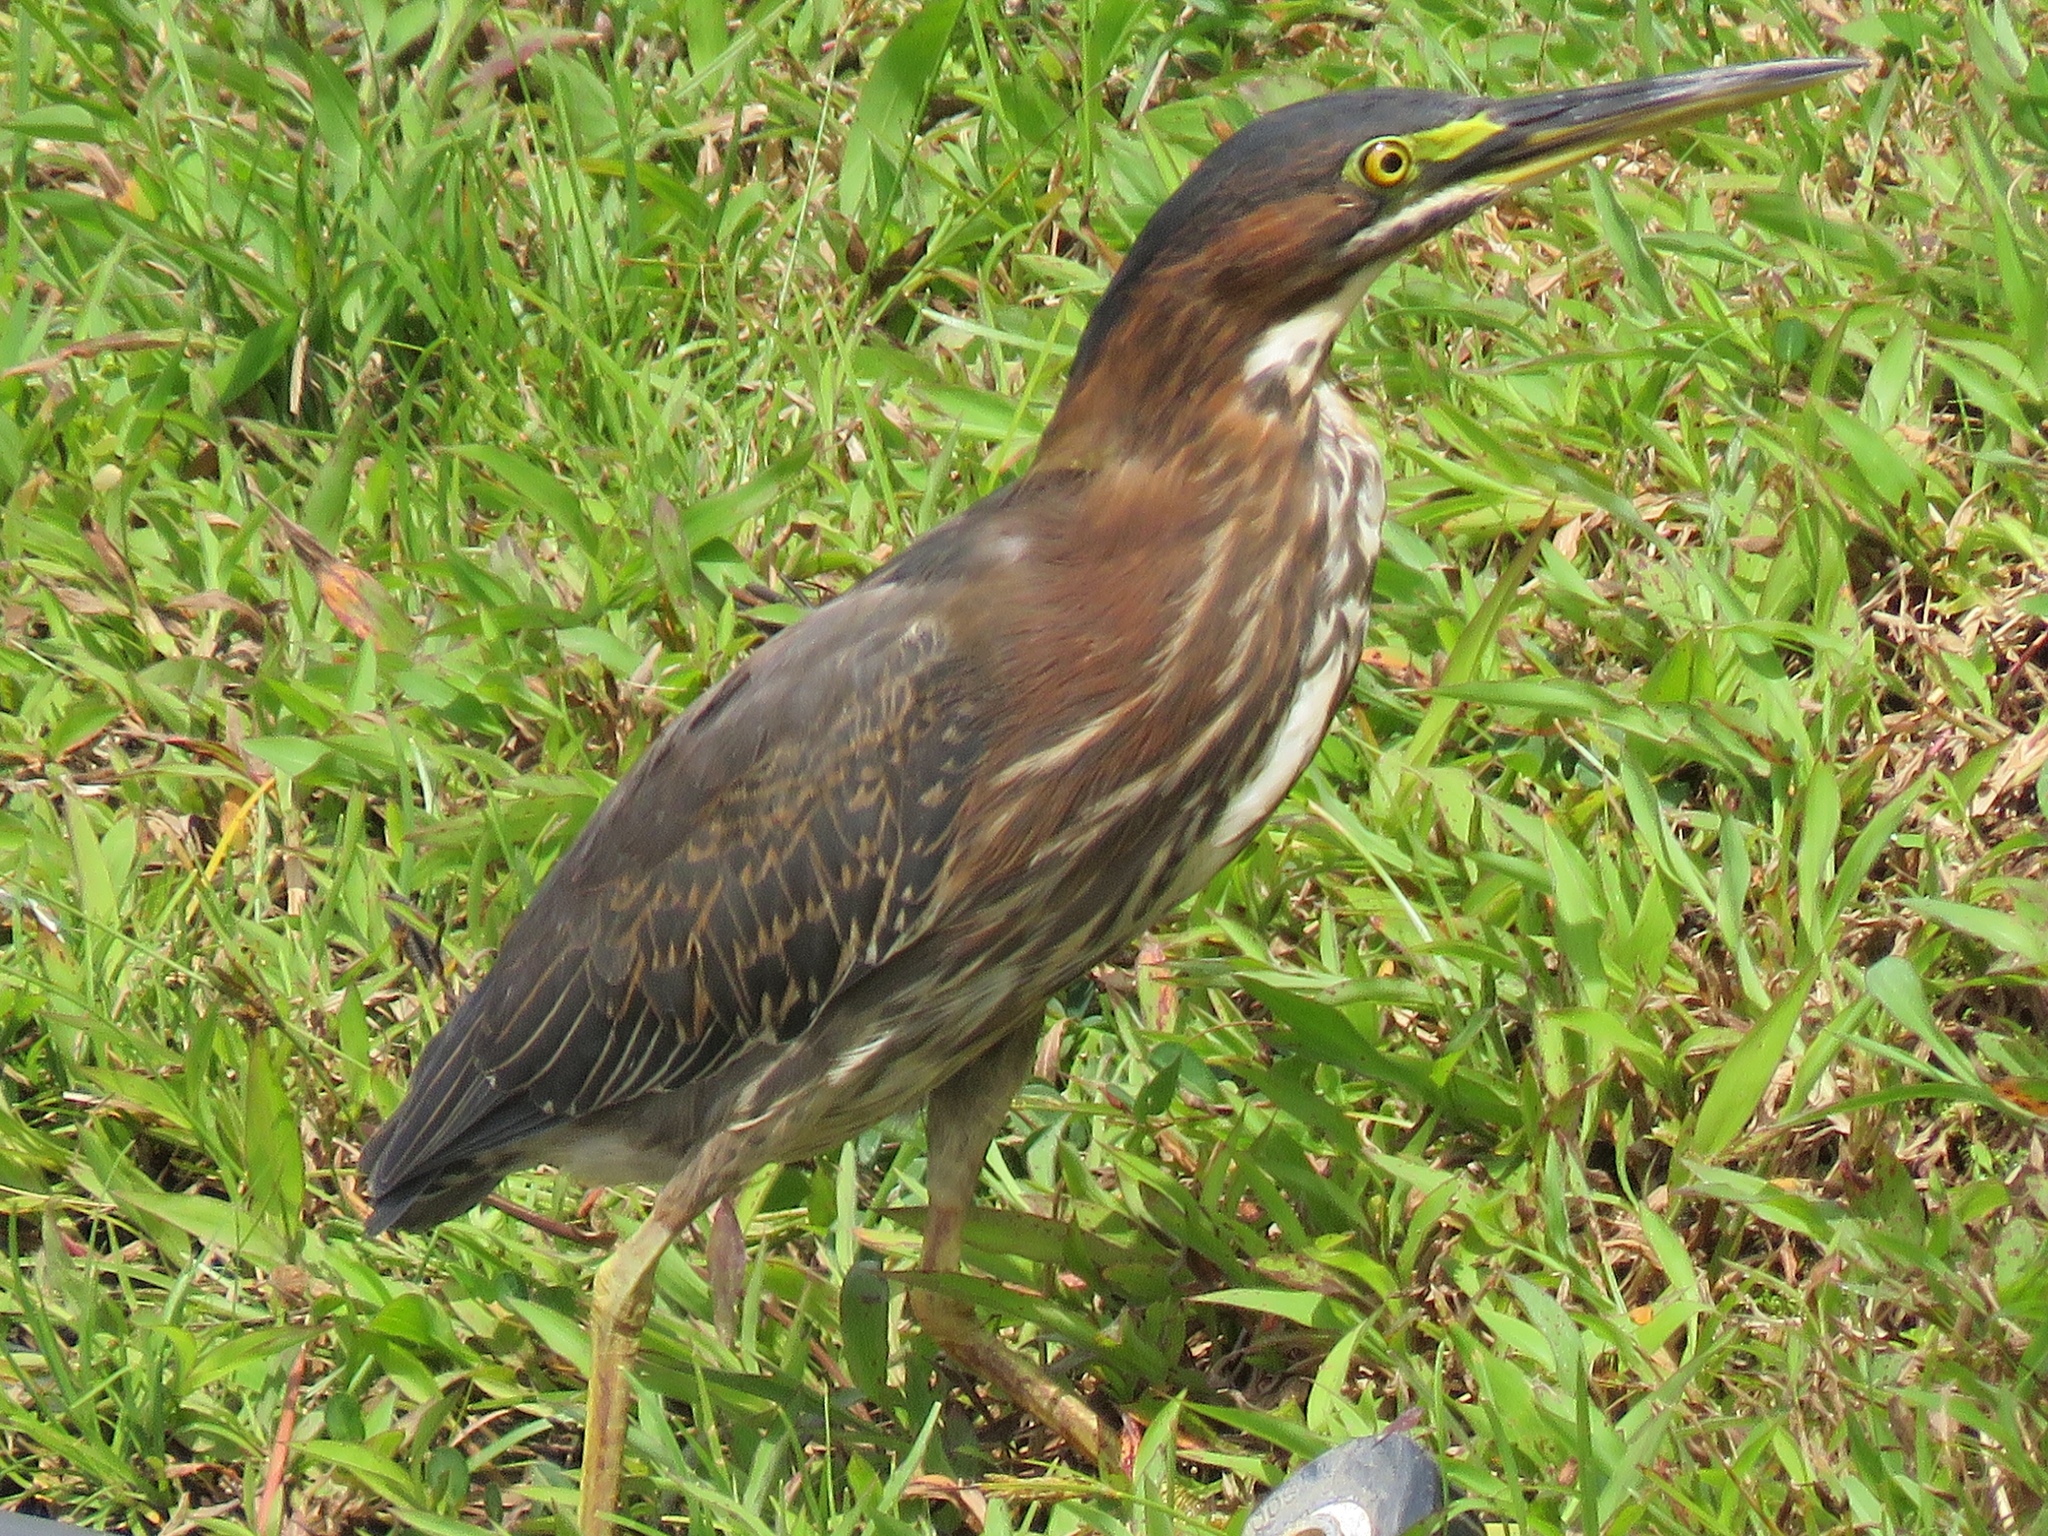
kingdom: Animalia
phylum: Chordata
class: Aves
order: Pelecaniformes
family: Ardeidae
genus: Butorides
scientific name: Butorides virescens
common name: Green heron
